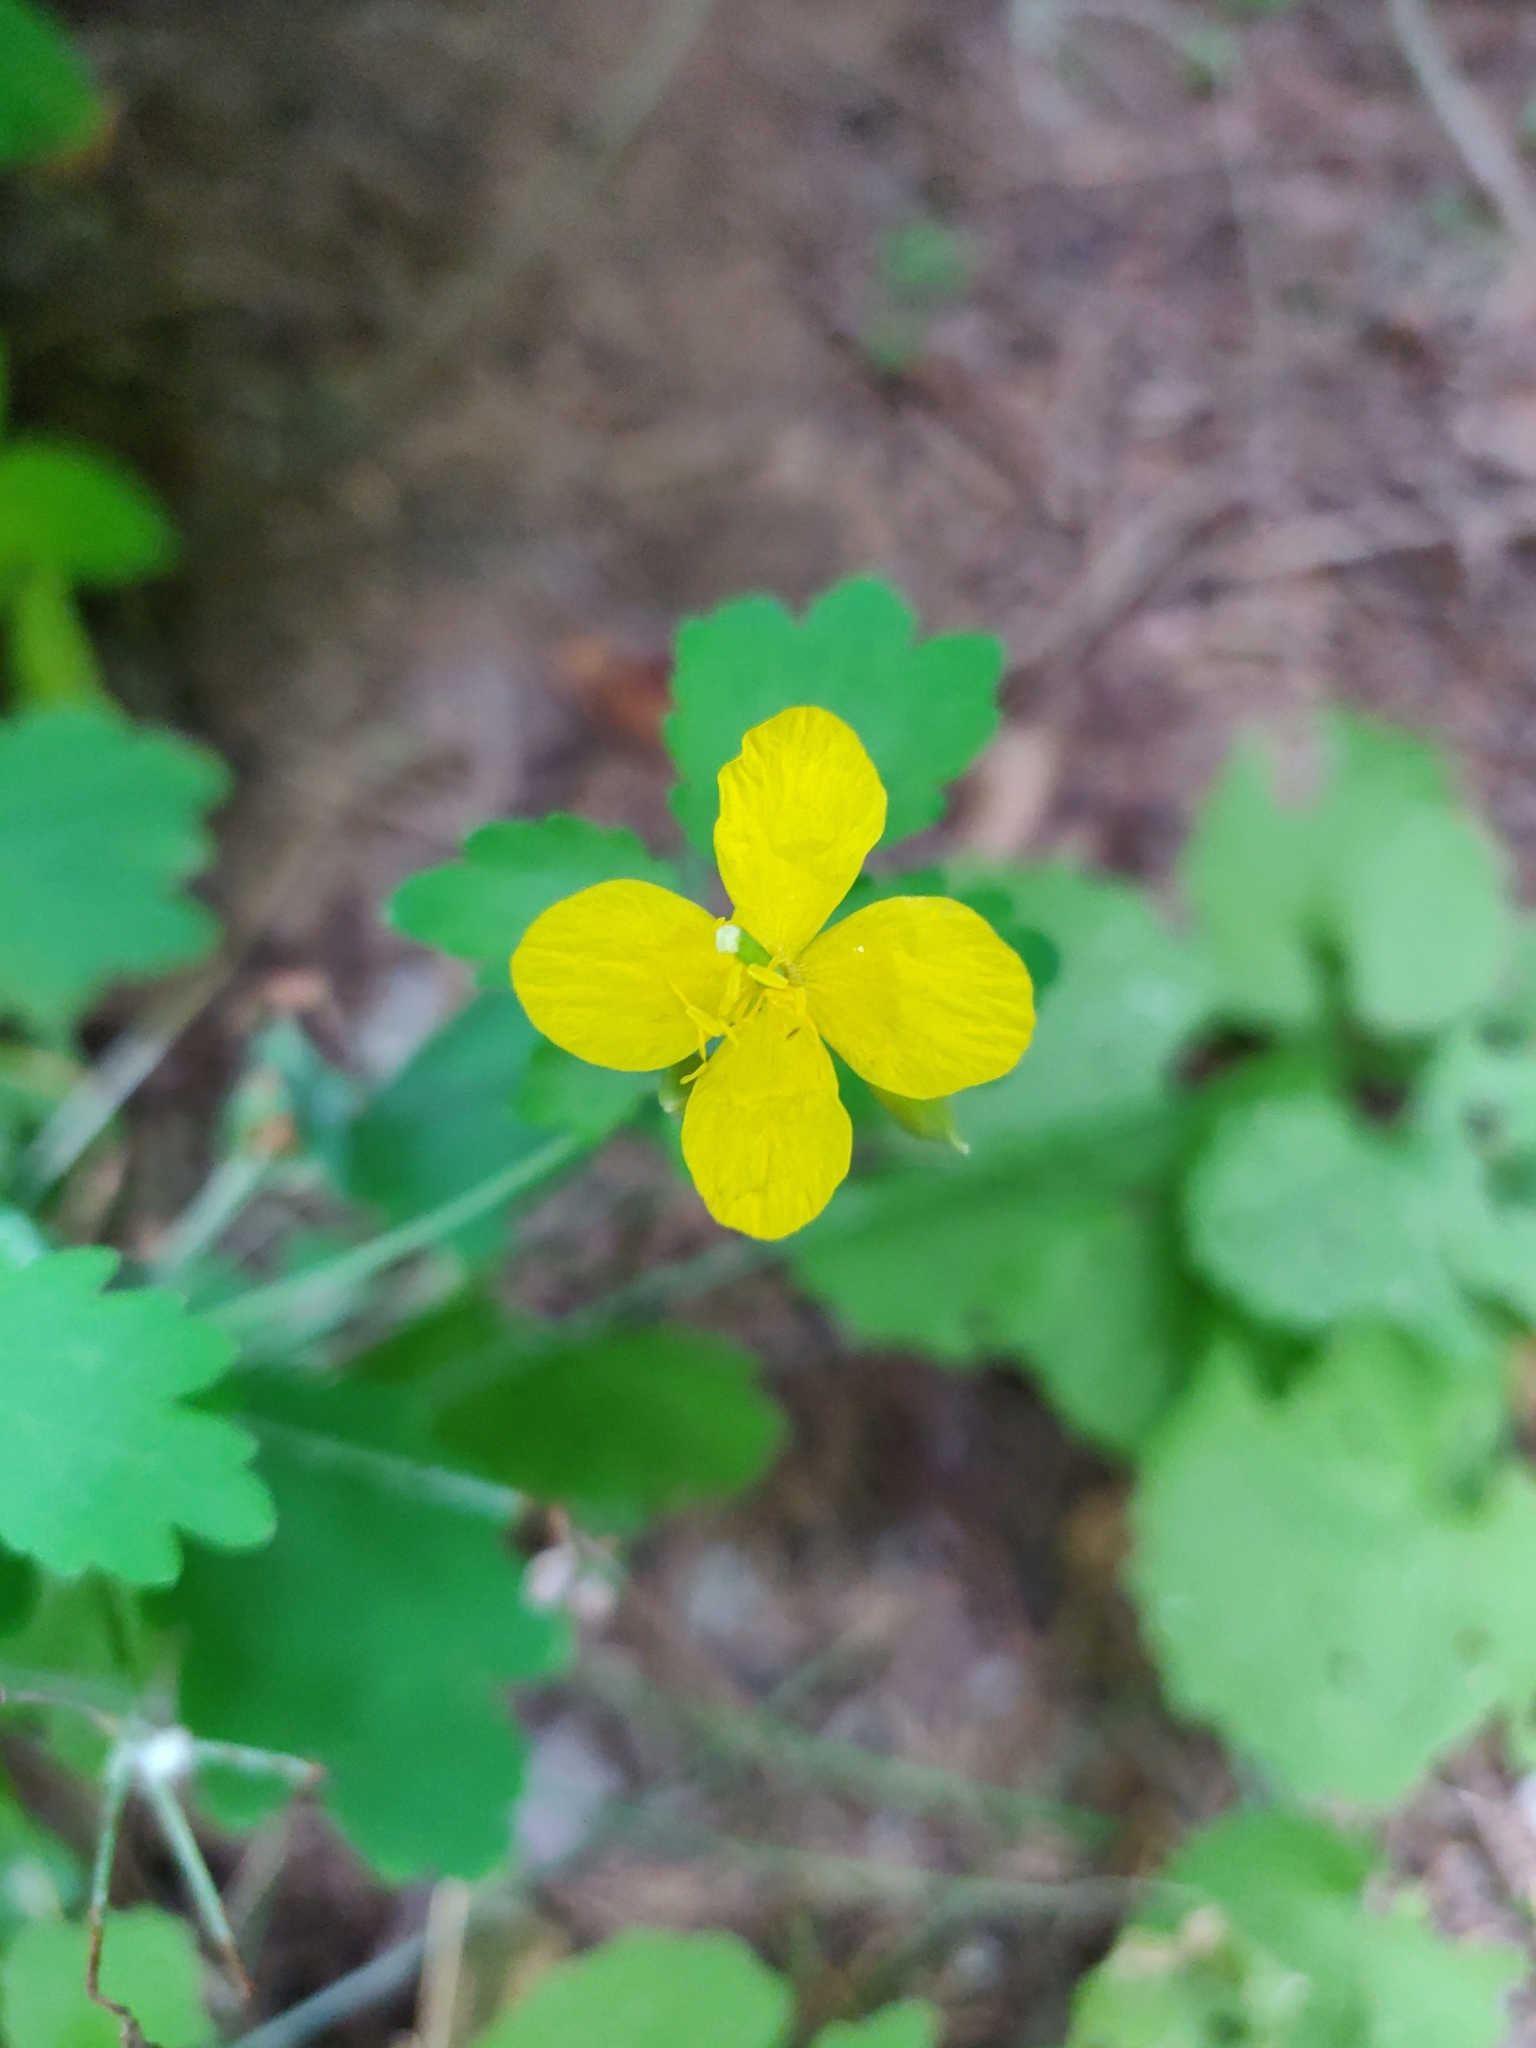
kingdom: Plantae
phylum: Tracheophyta
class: Magnoliopsida
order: Ranunculales
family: Papaveraceae
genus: Chelidonium
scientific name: Chelidonium majus
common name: Greater celandine
